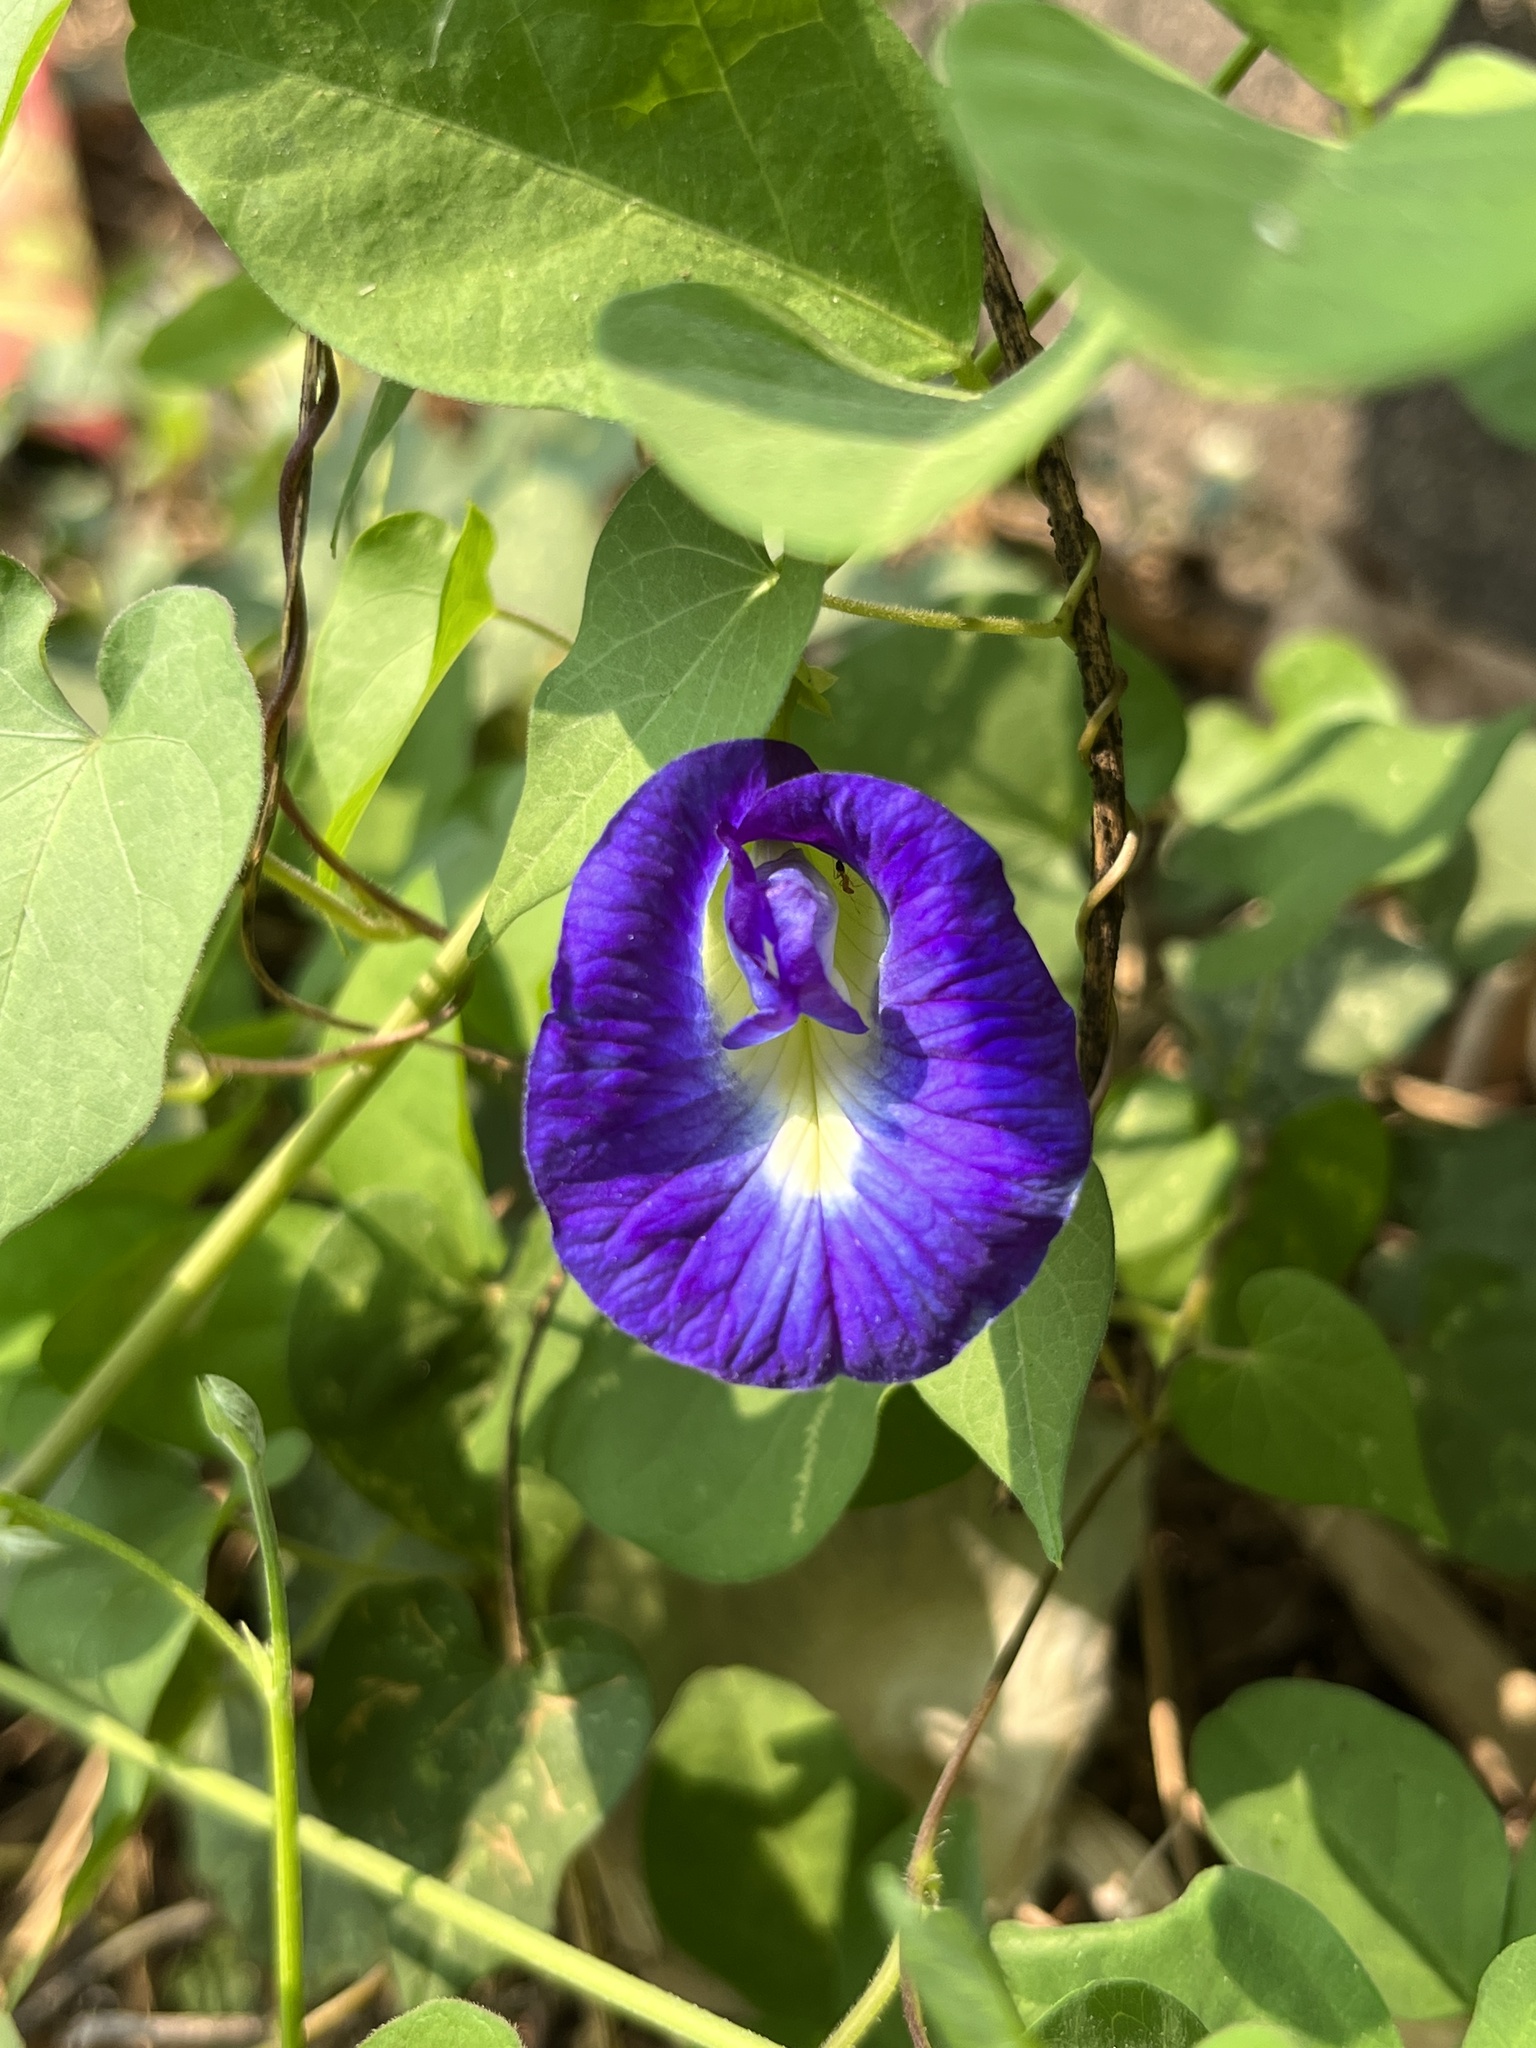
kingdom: Plantae
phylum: Tracheophyta
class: Magnoliopsida
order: Fabales
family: Fabaceae
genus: Clitoria
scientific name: Clitoria ternatea
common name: Asian pigeonwings
